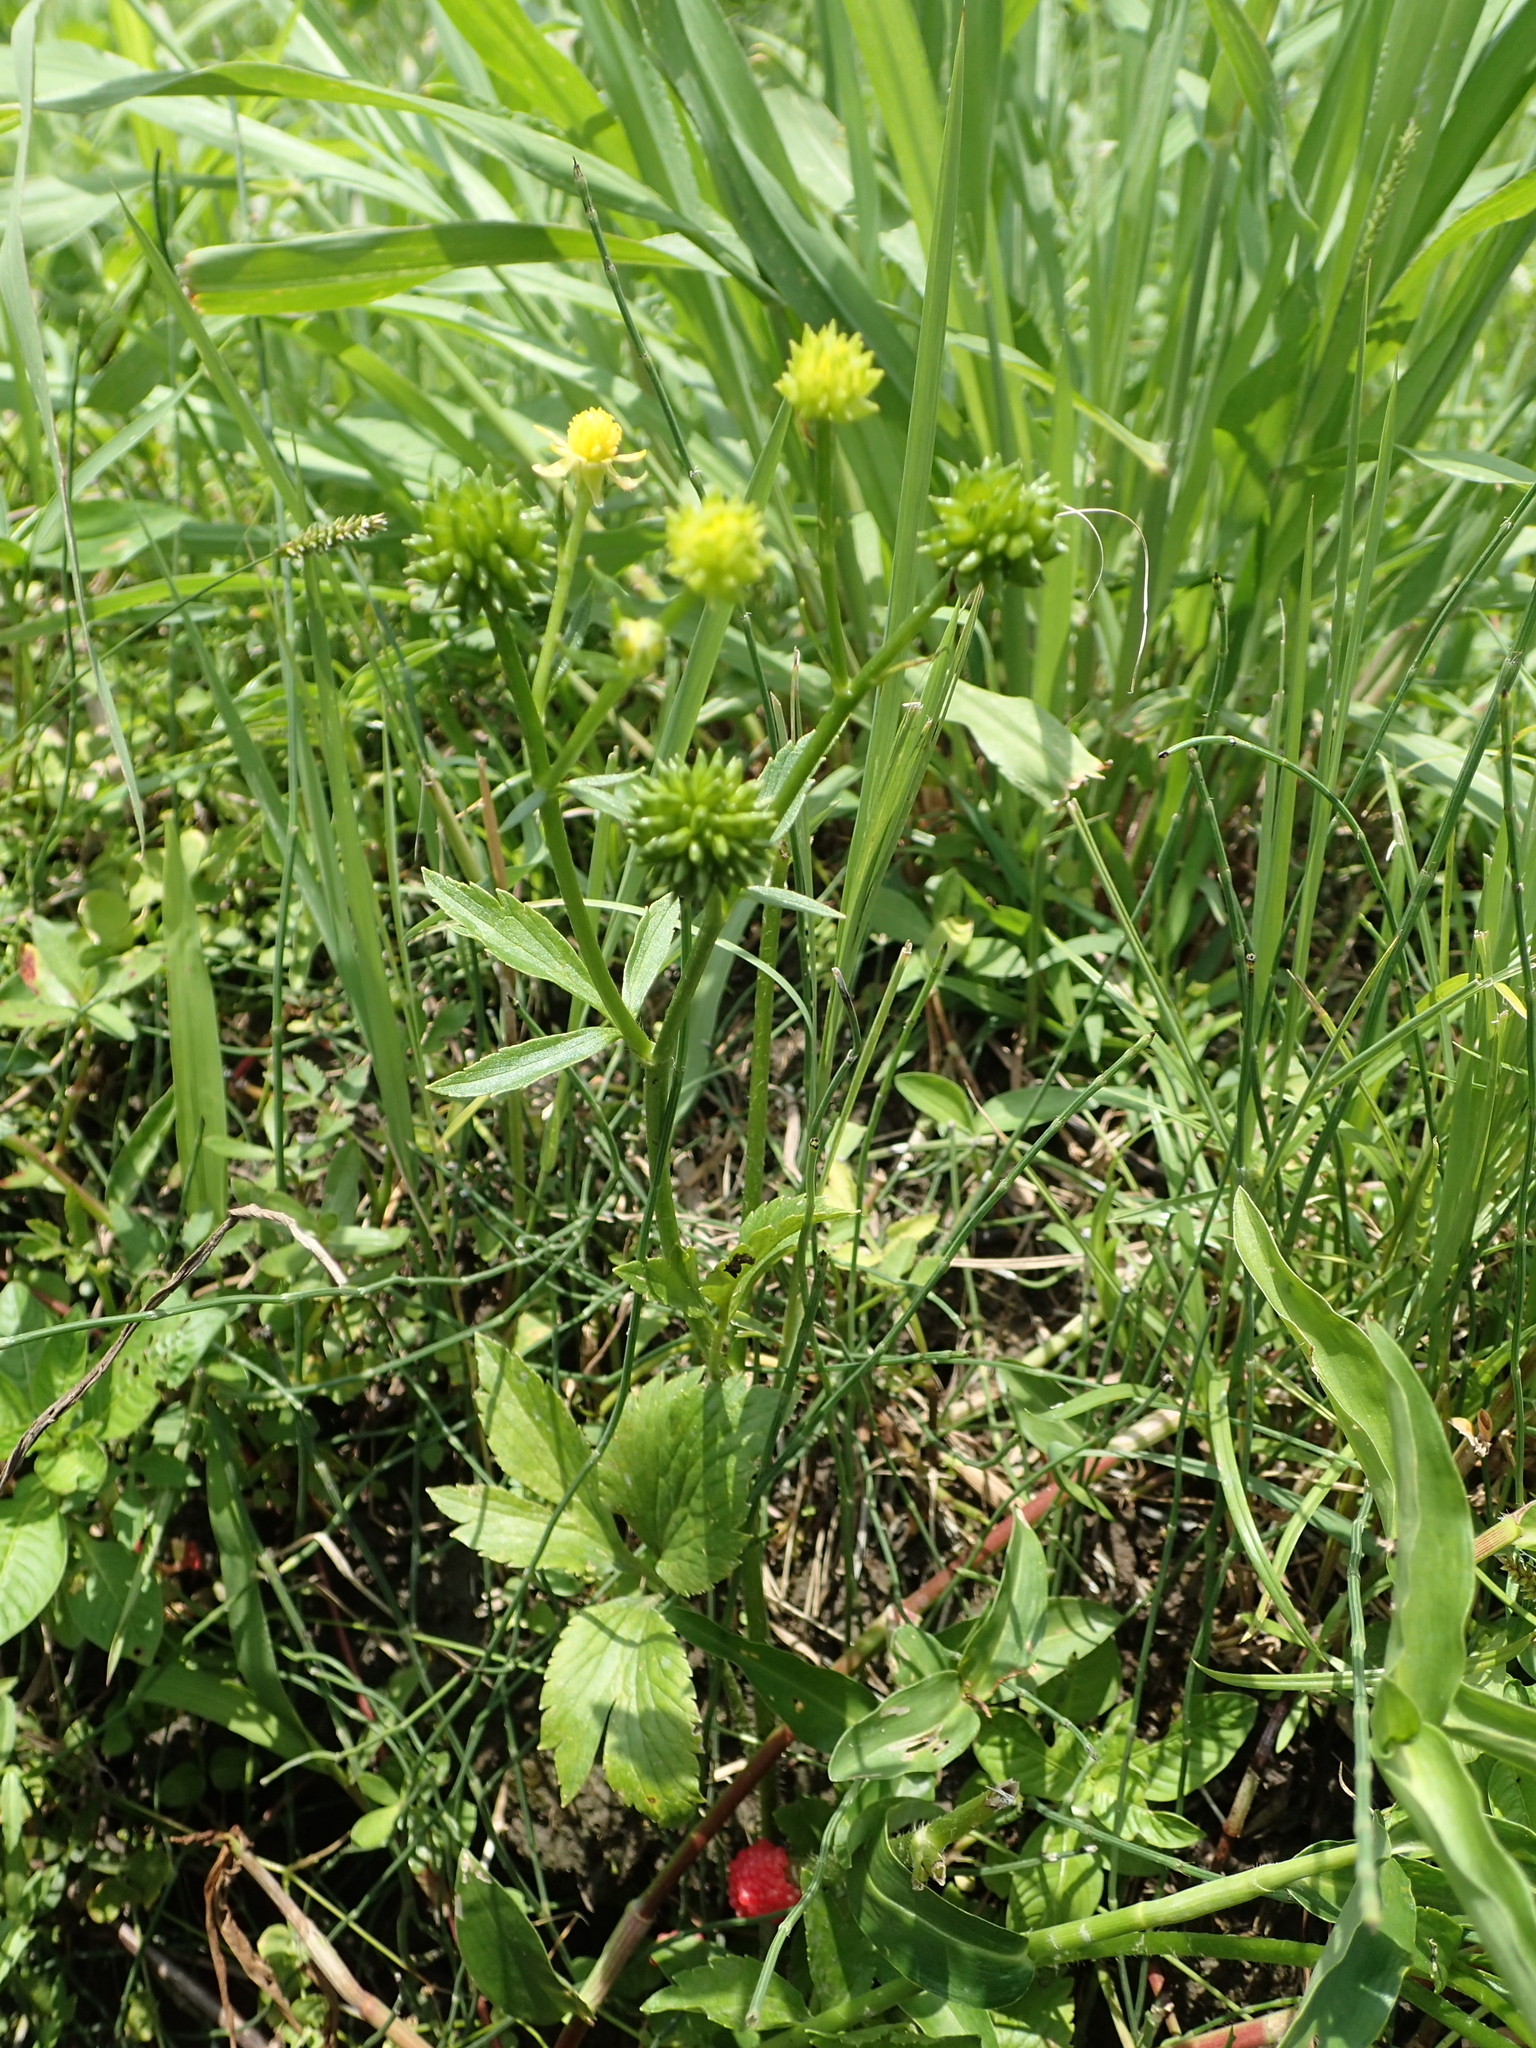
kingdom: Plantae
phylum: Tracheophyta
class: Magnoliopsida
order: Ranunculales
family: Ranunculaceae
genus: Ranunculus
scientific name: Ranunculus cantoniensis
